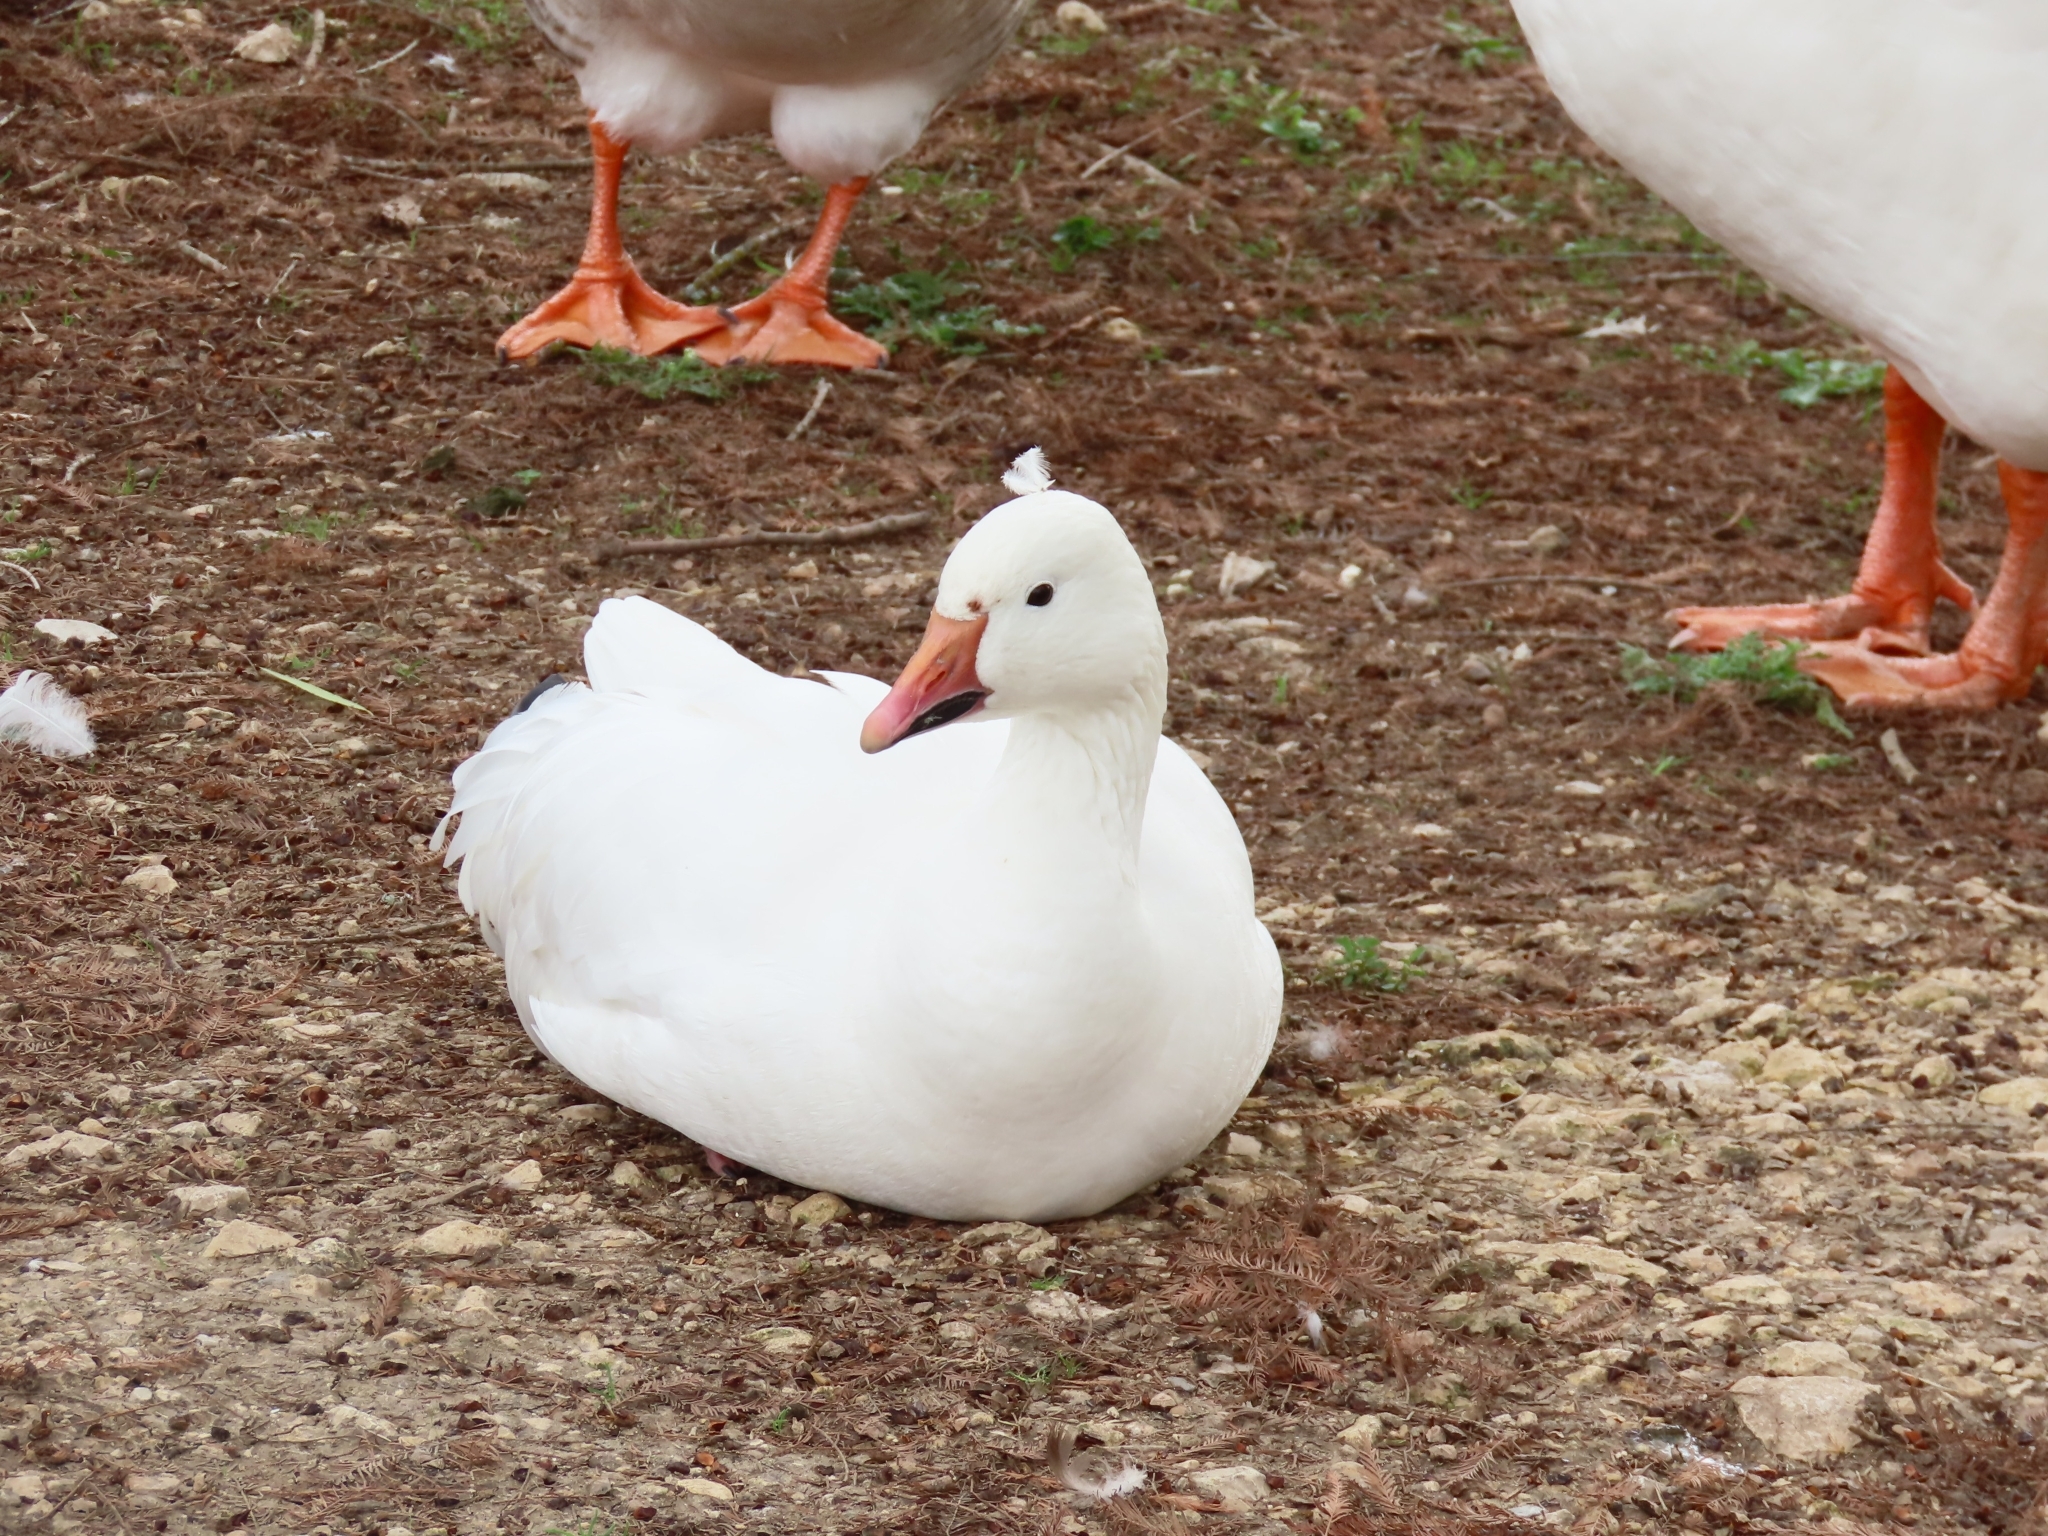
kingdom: Animalia
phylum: Chordata
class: Aves
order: Anseriformes
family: Anatidae
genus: Anser
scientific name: Anser caerulescens
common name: Snow goose
